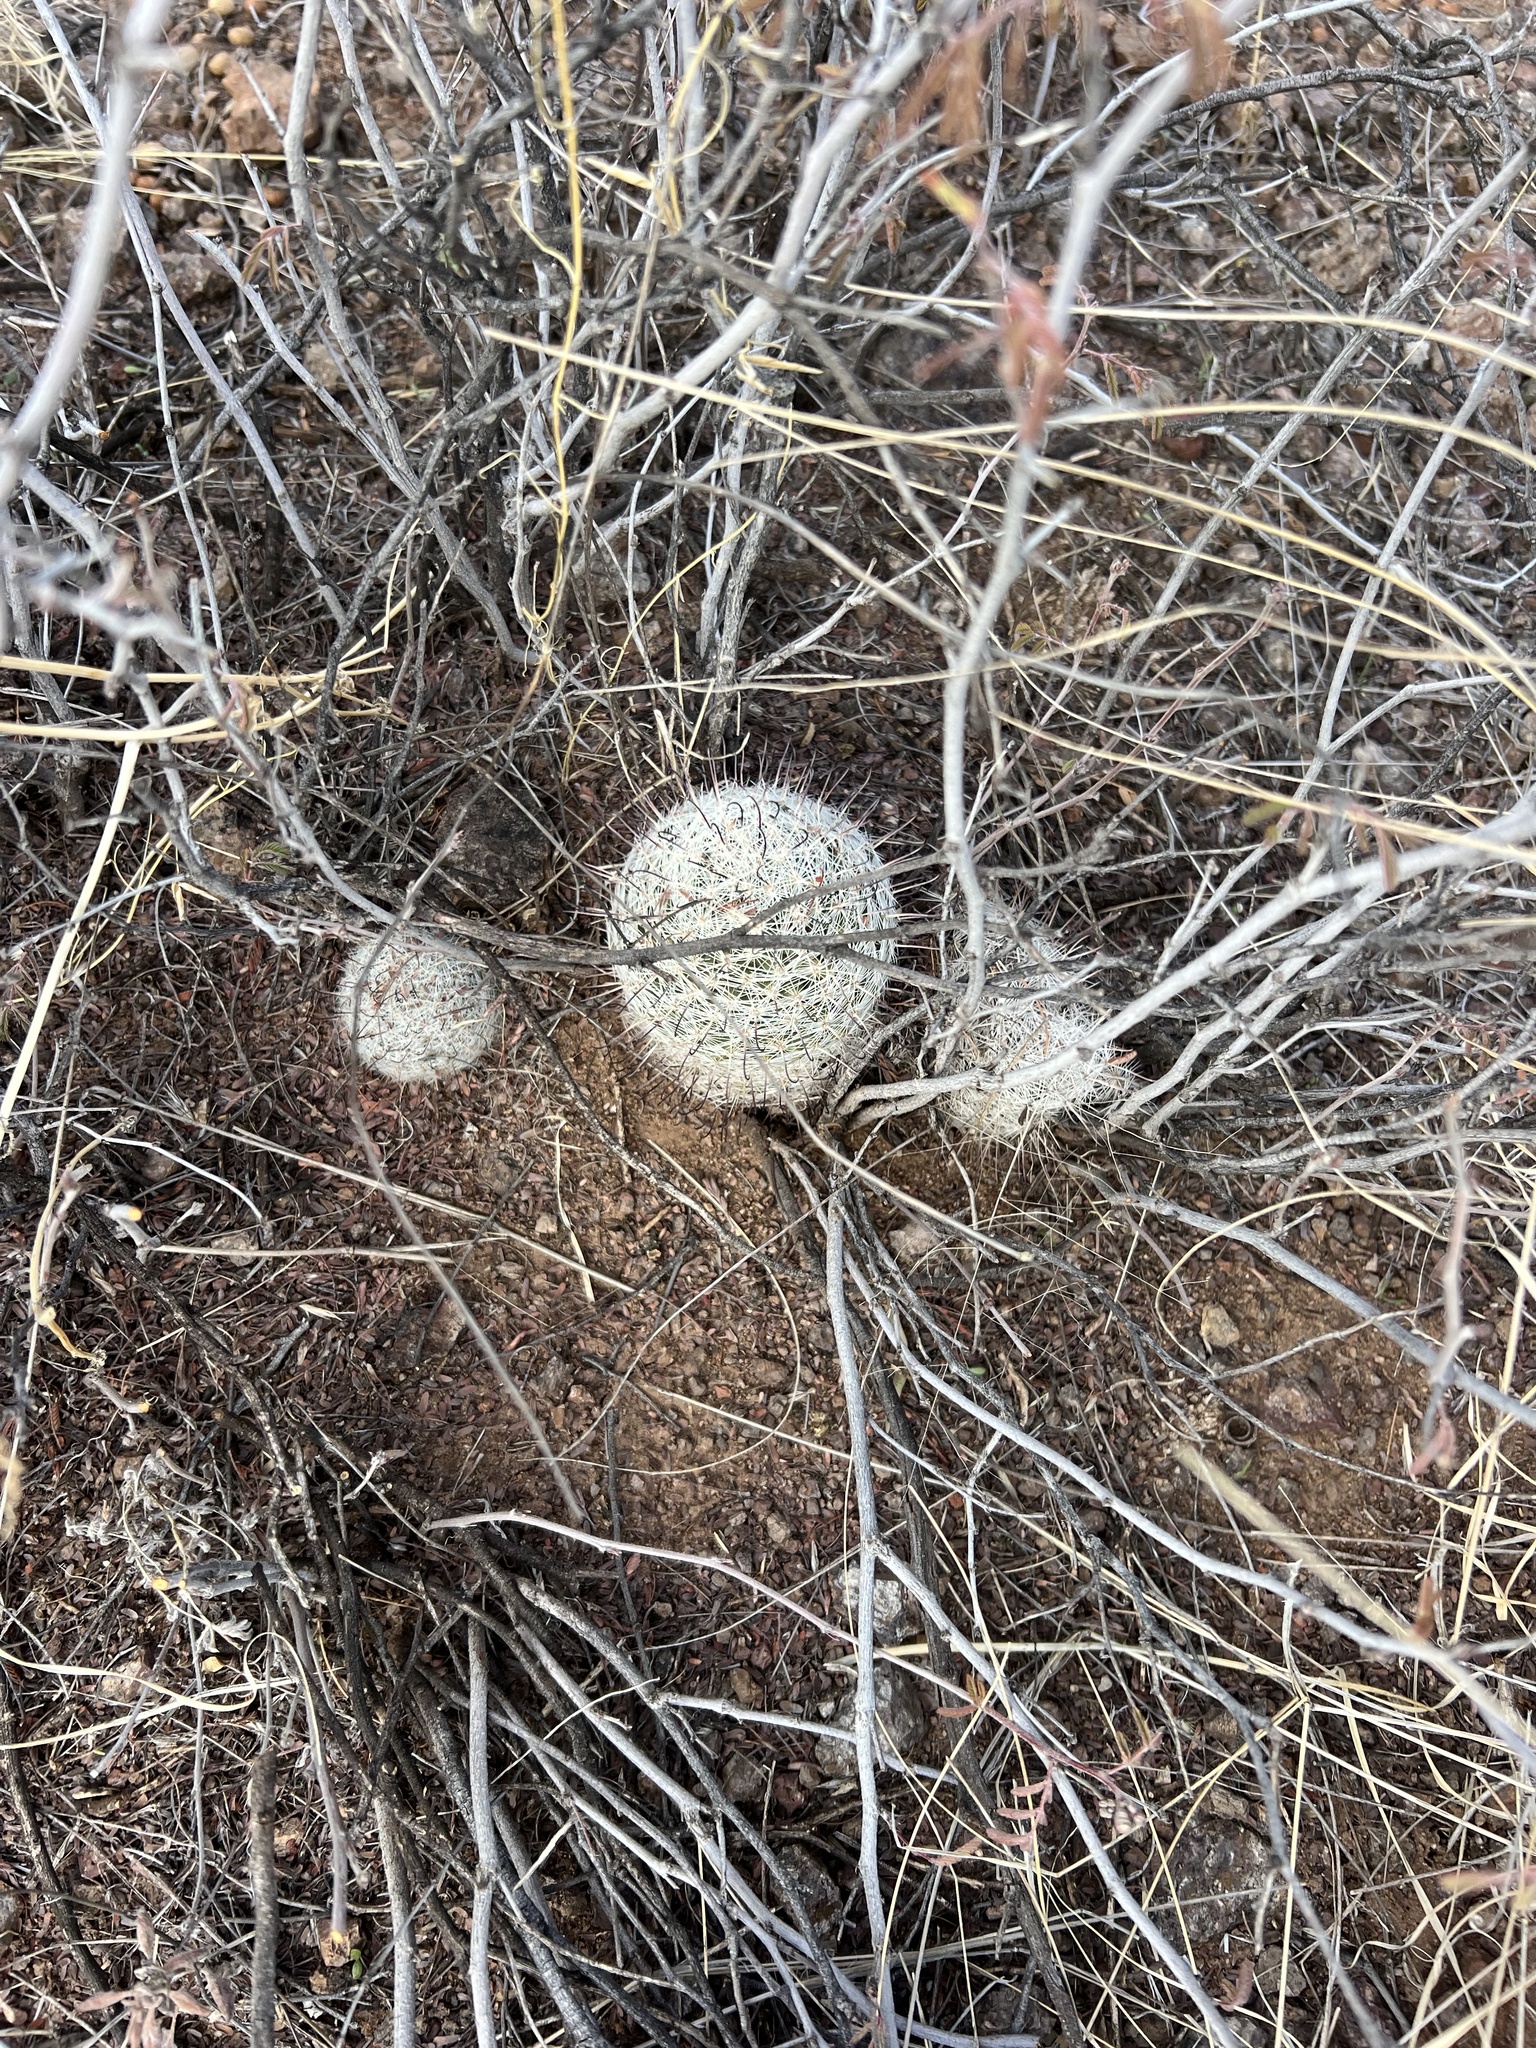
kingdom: Plantae
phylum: Tracheophyta
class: Magnoliopsida
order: Caryophyllales
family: Cactaceae
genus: Cochemiea
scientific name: Cochemiea grahamii
